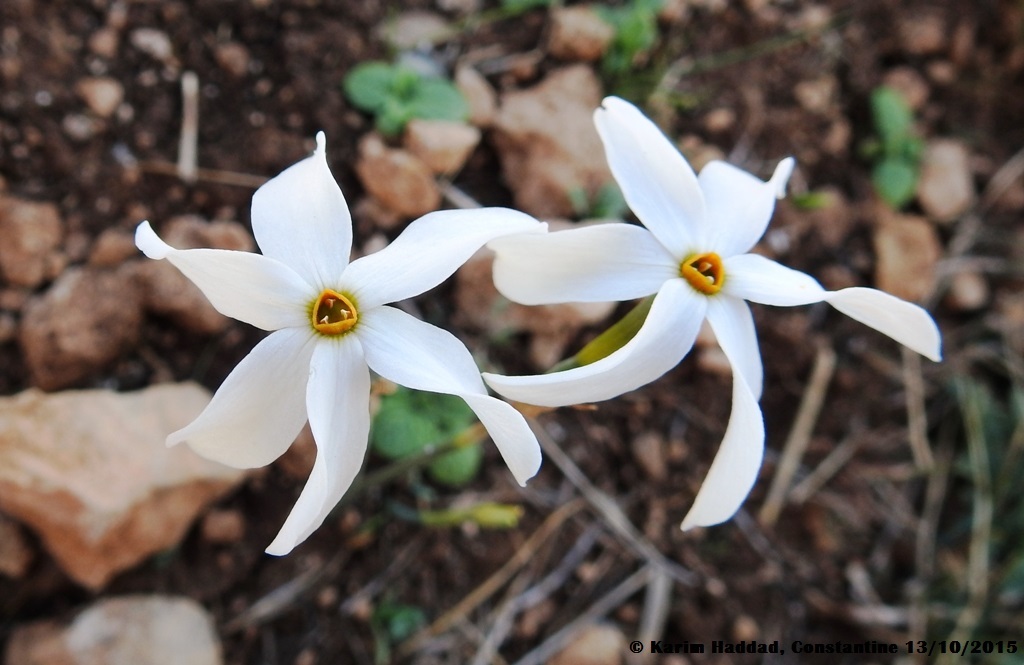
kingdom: Plantae
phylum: Tracheophyta
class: Liliopsida
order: Asparagales
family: Amaryllidaceae
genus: Narcissus
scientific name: Narcissus deficiens
